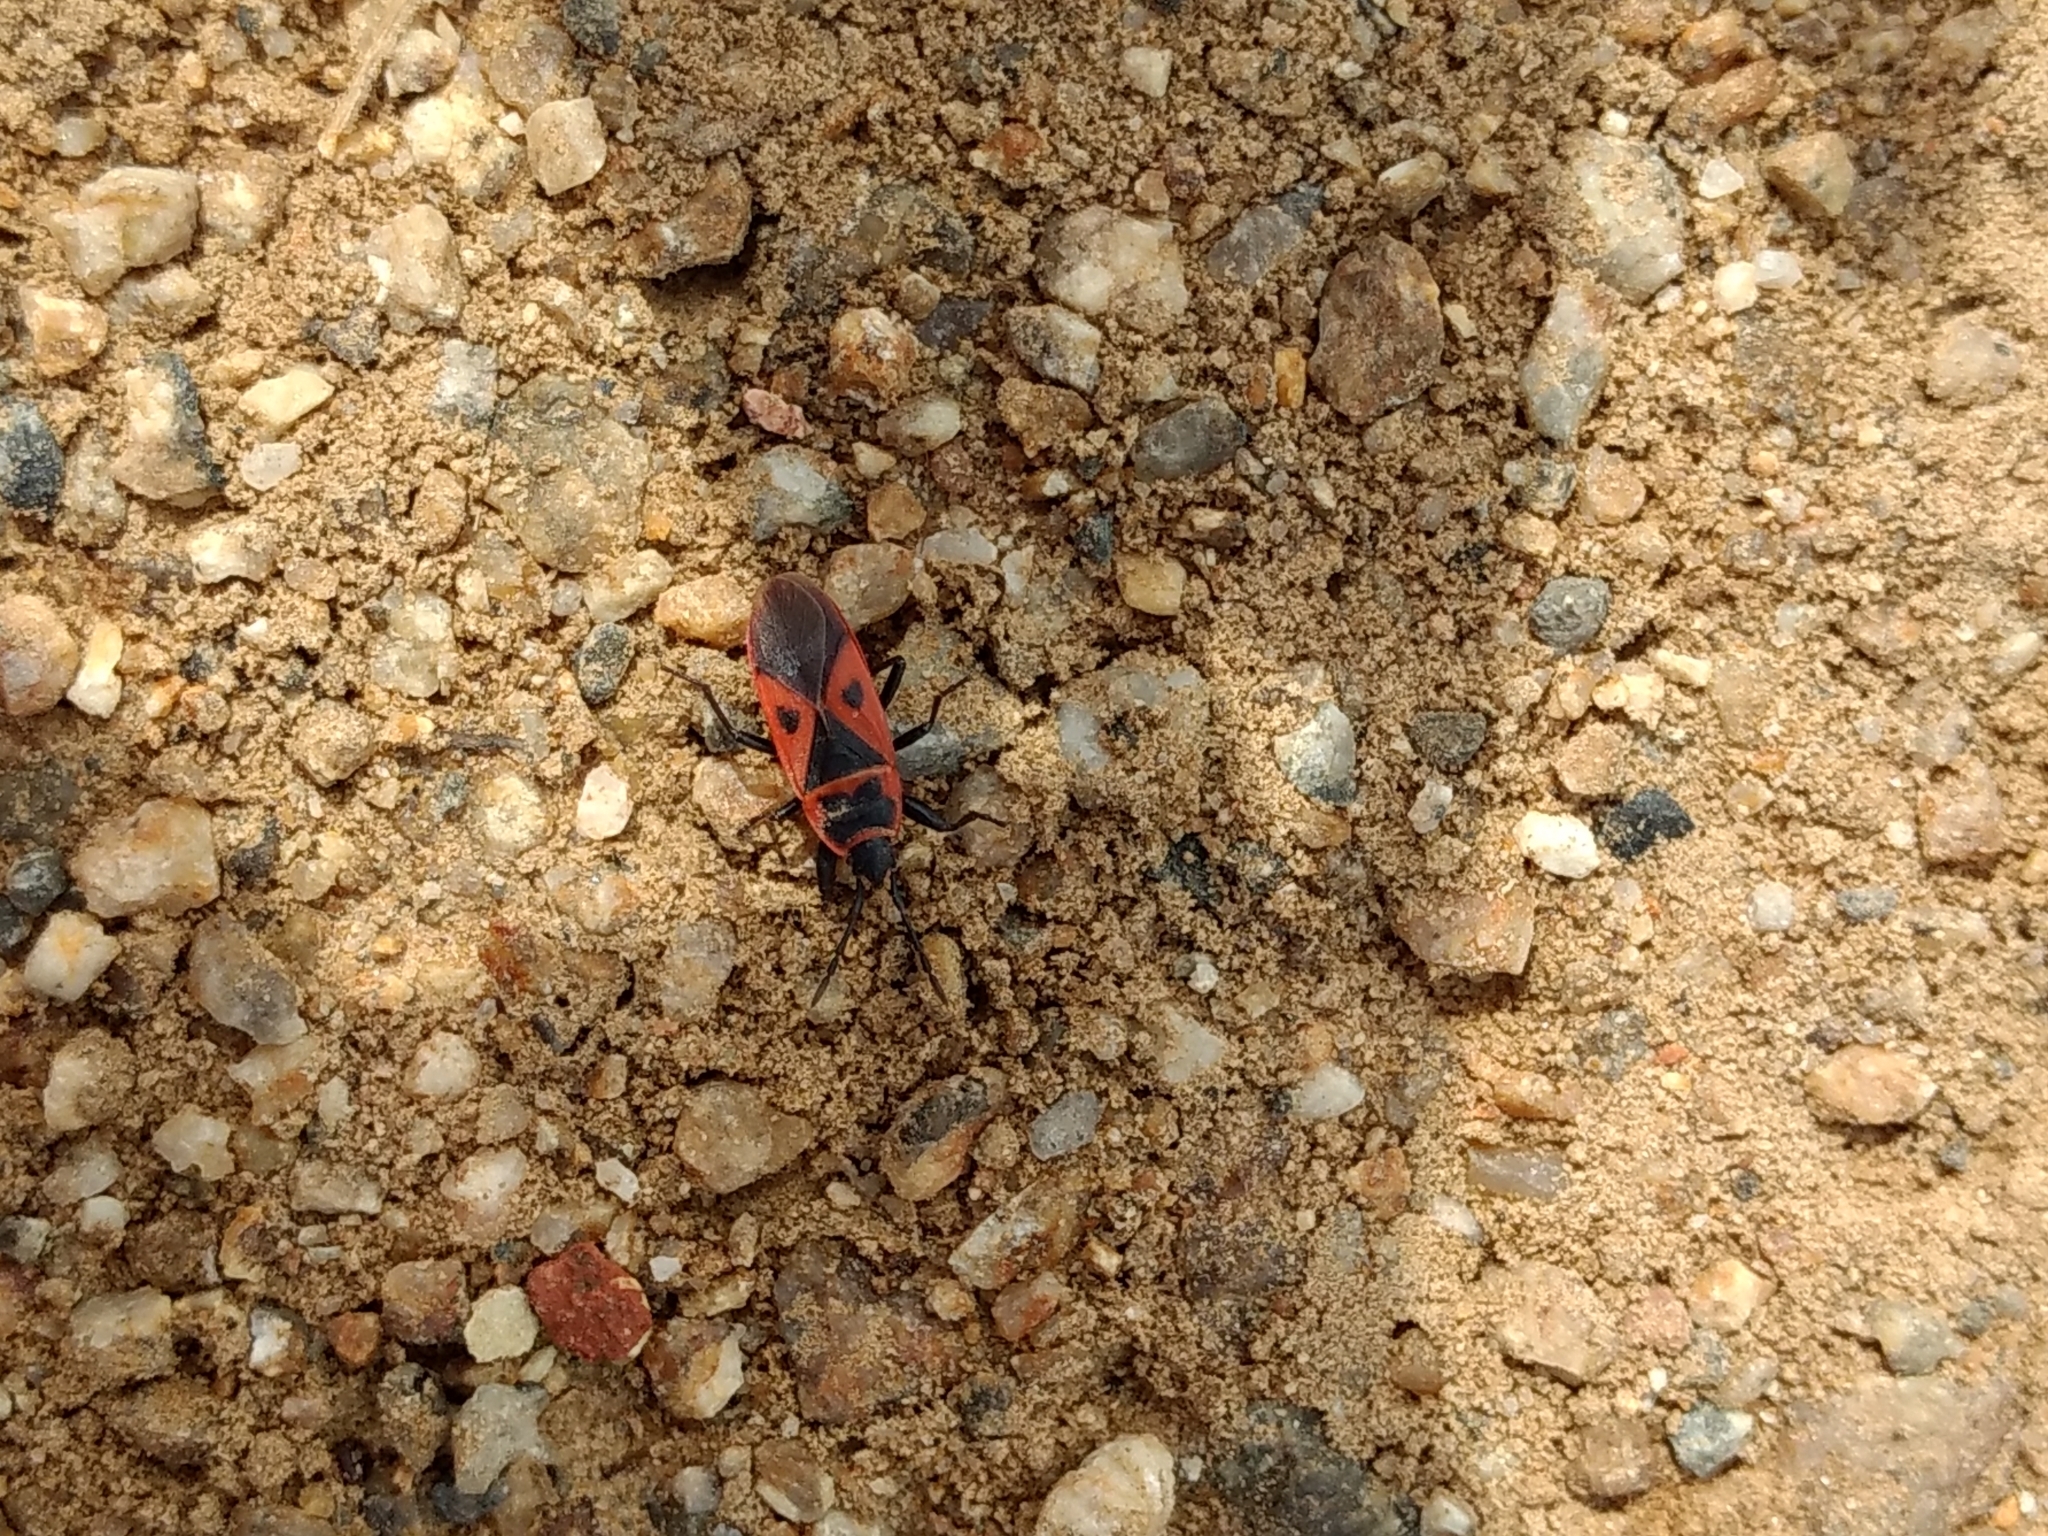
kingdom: Animalia
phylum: Arthropoda
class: Insecta
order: Hemiptera
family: Pyrrhocoridae
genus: Scantius
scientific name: Scantius aegyptius
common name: Red bug
